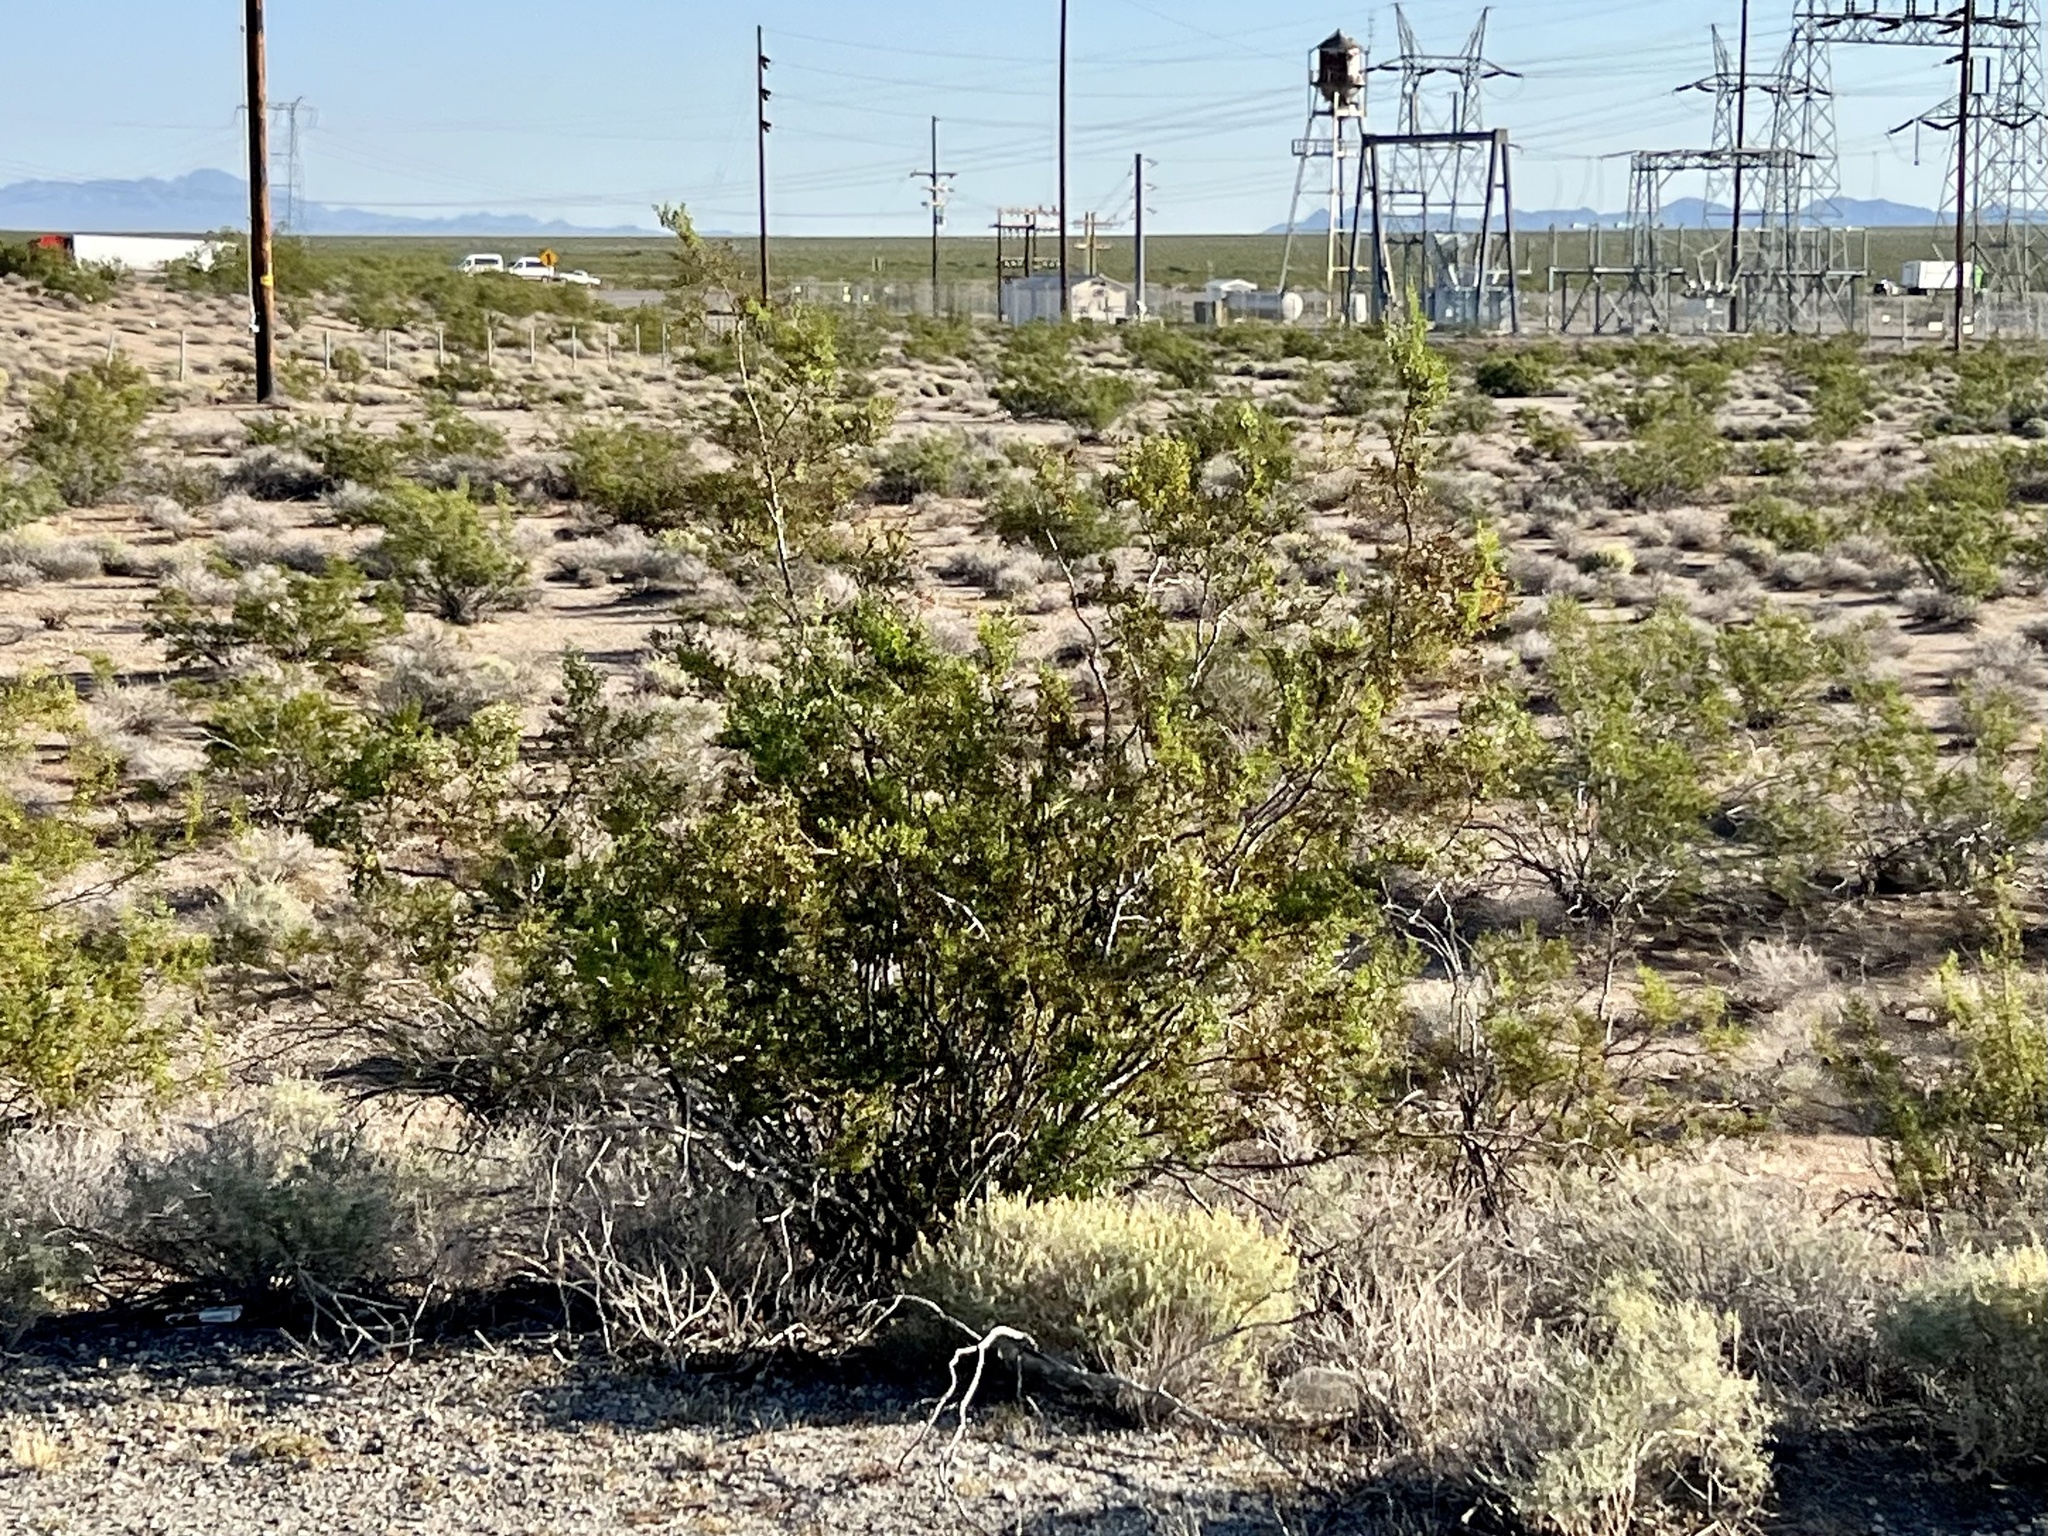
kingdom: Plantae
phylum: Tracheophyta
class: Magnoliopsida
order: Zygophyllales
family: Zygophyllaceae
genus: Larrea
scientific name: Larrea tridentata
